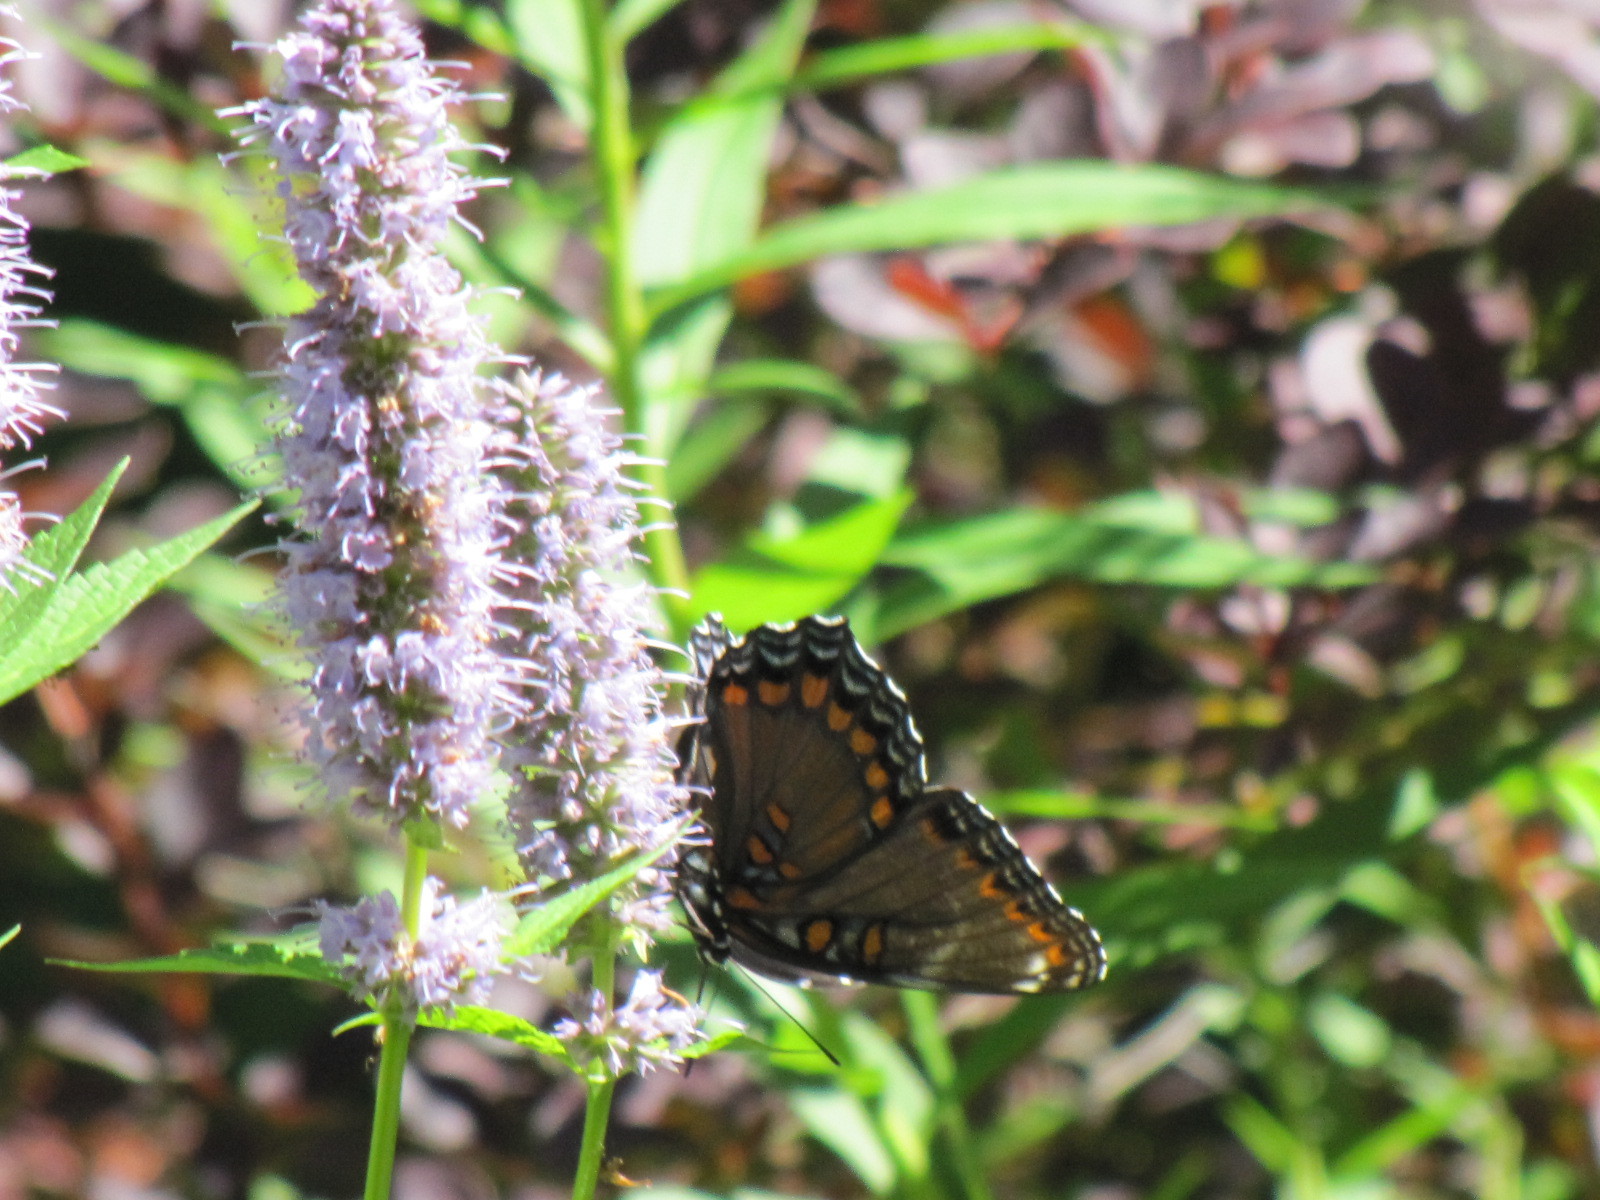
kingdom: Animalia
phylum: Arthropoda
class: Insecta
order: Lepidoptera
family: Nymphalidae
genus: Limenitis
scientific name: Limenitis astyanax
